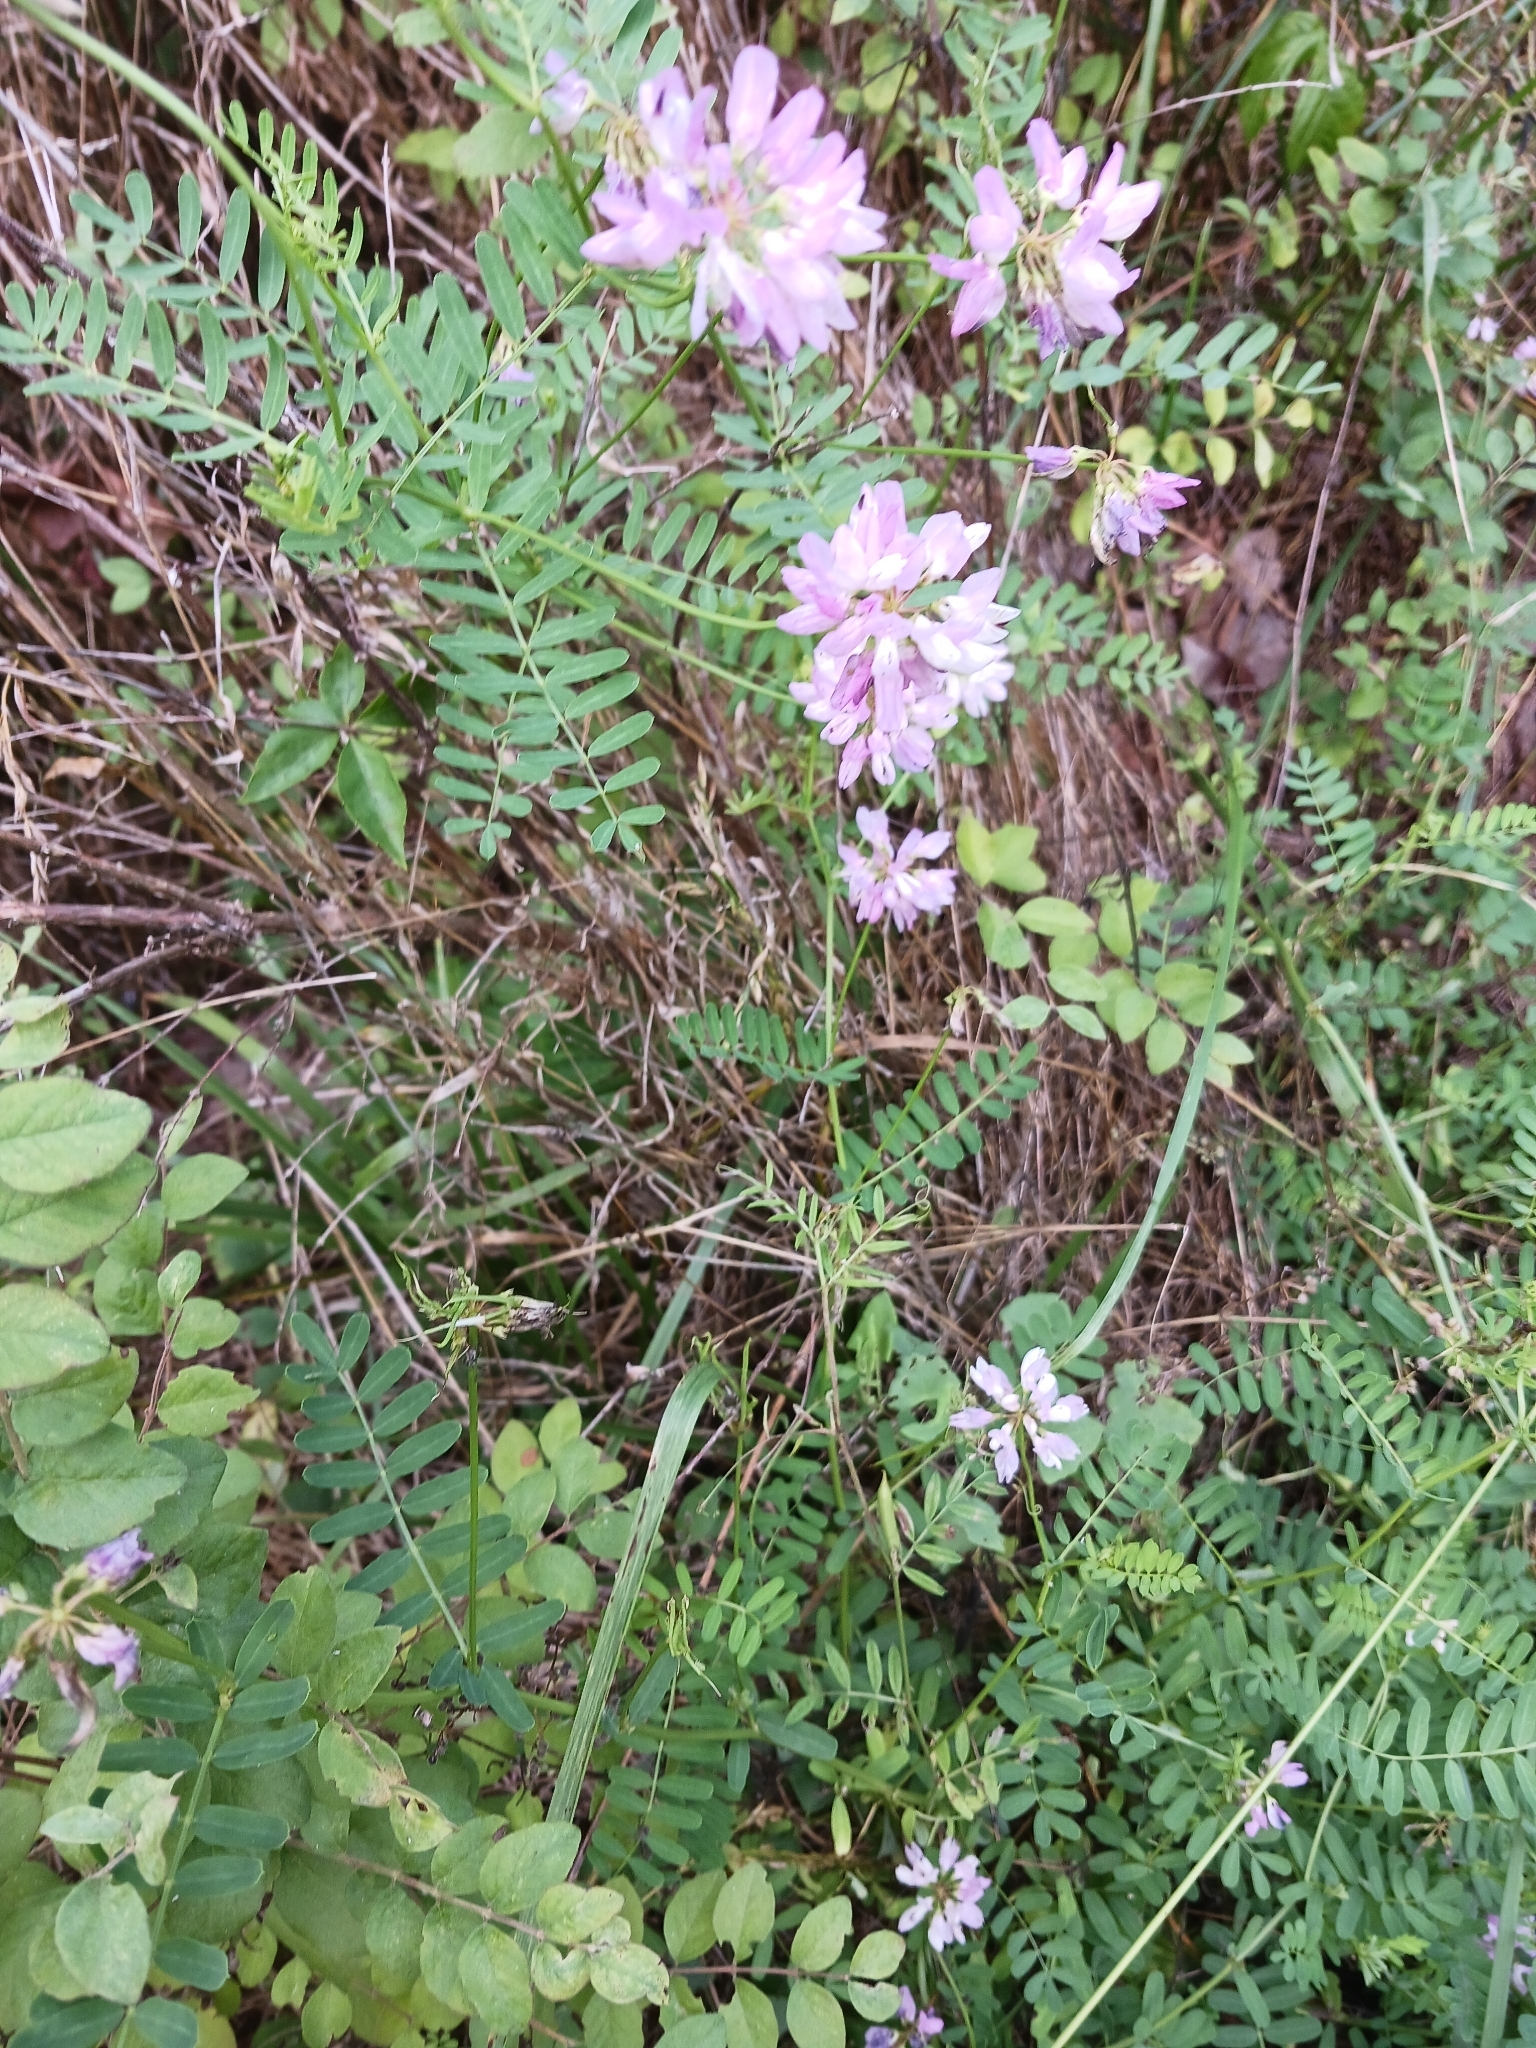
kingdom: Plantae
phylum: Tracheophyta
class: Magnoliopsida
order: Fabales
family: Fabaceae
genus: Coronilla
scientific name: Coronilla varia
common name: Crownvetch
